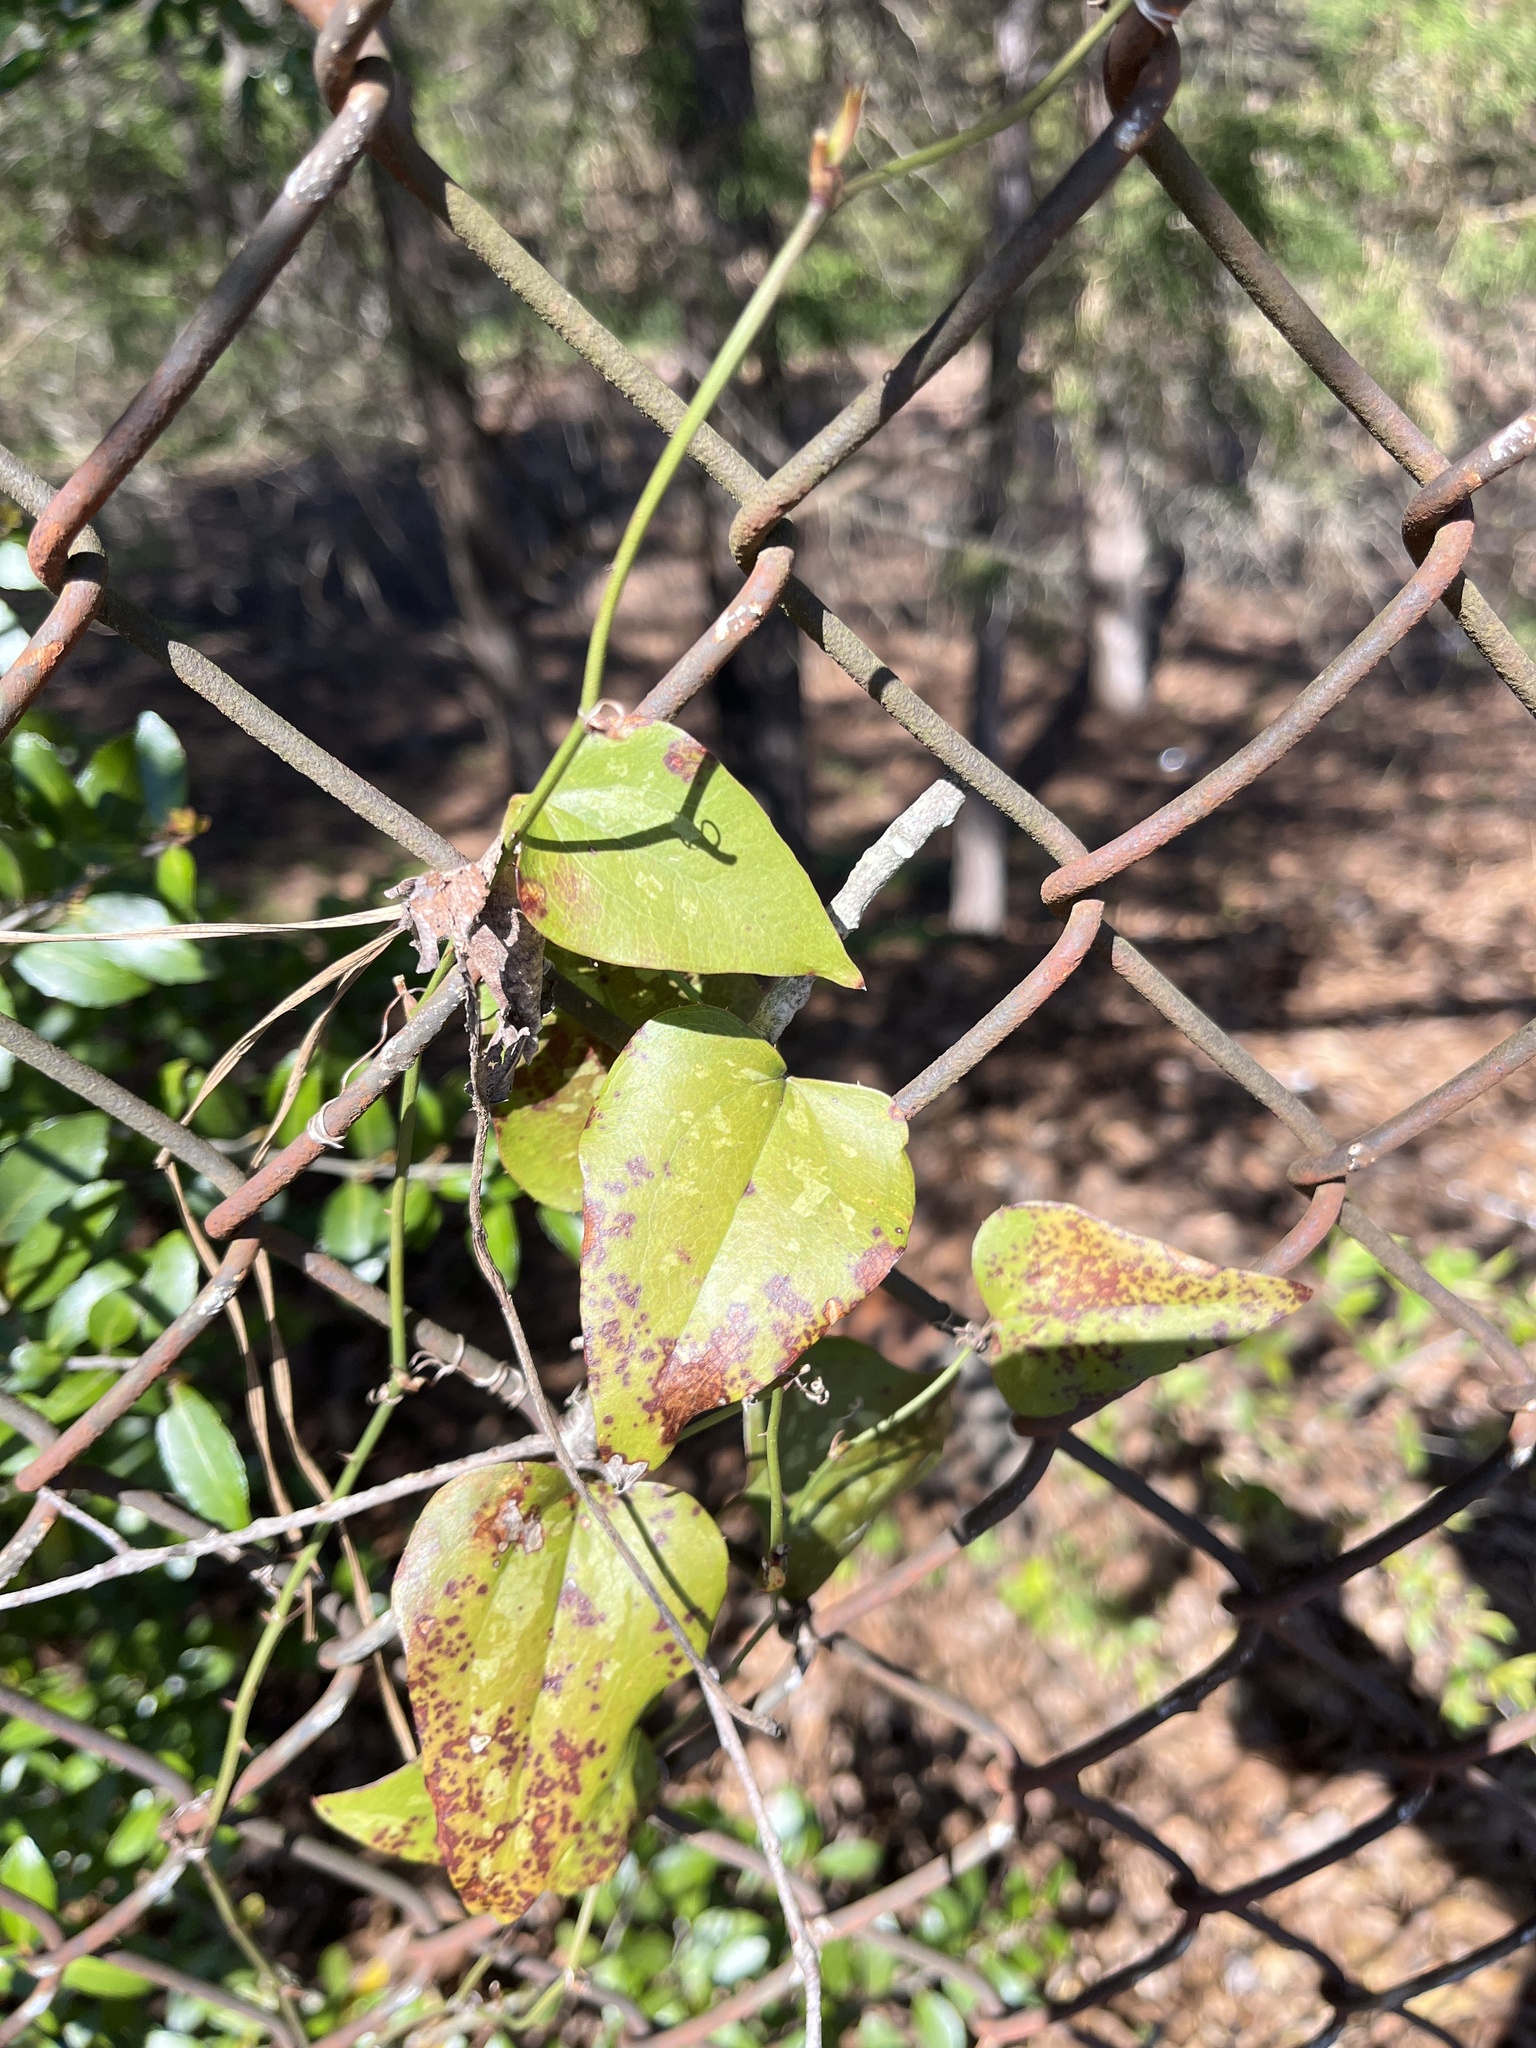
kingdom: Plantae
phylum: Tracheophyta
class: Liliopsida
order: Liliales
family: Smilacaceae
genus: Smilax
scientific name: Smilax bona-nox
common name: Catbrier
